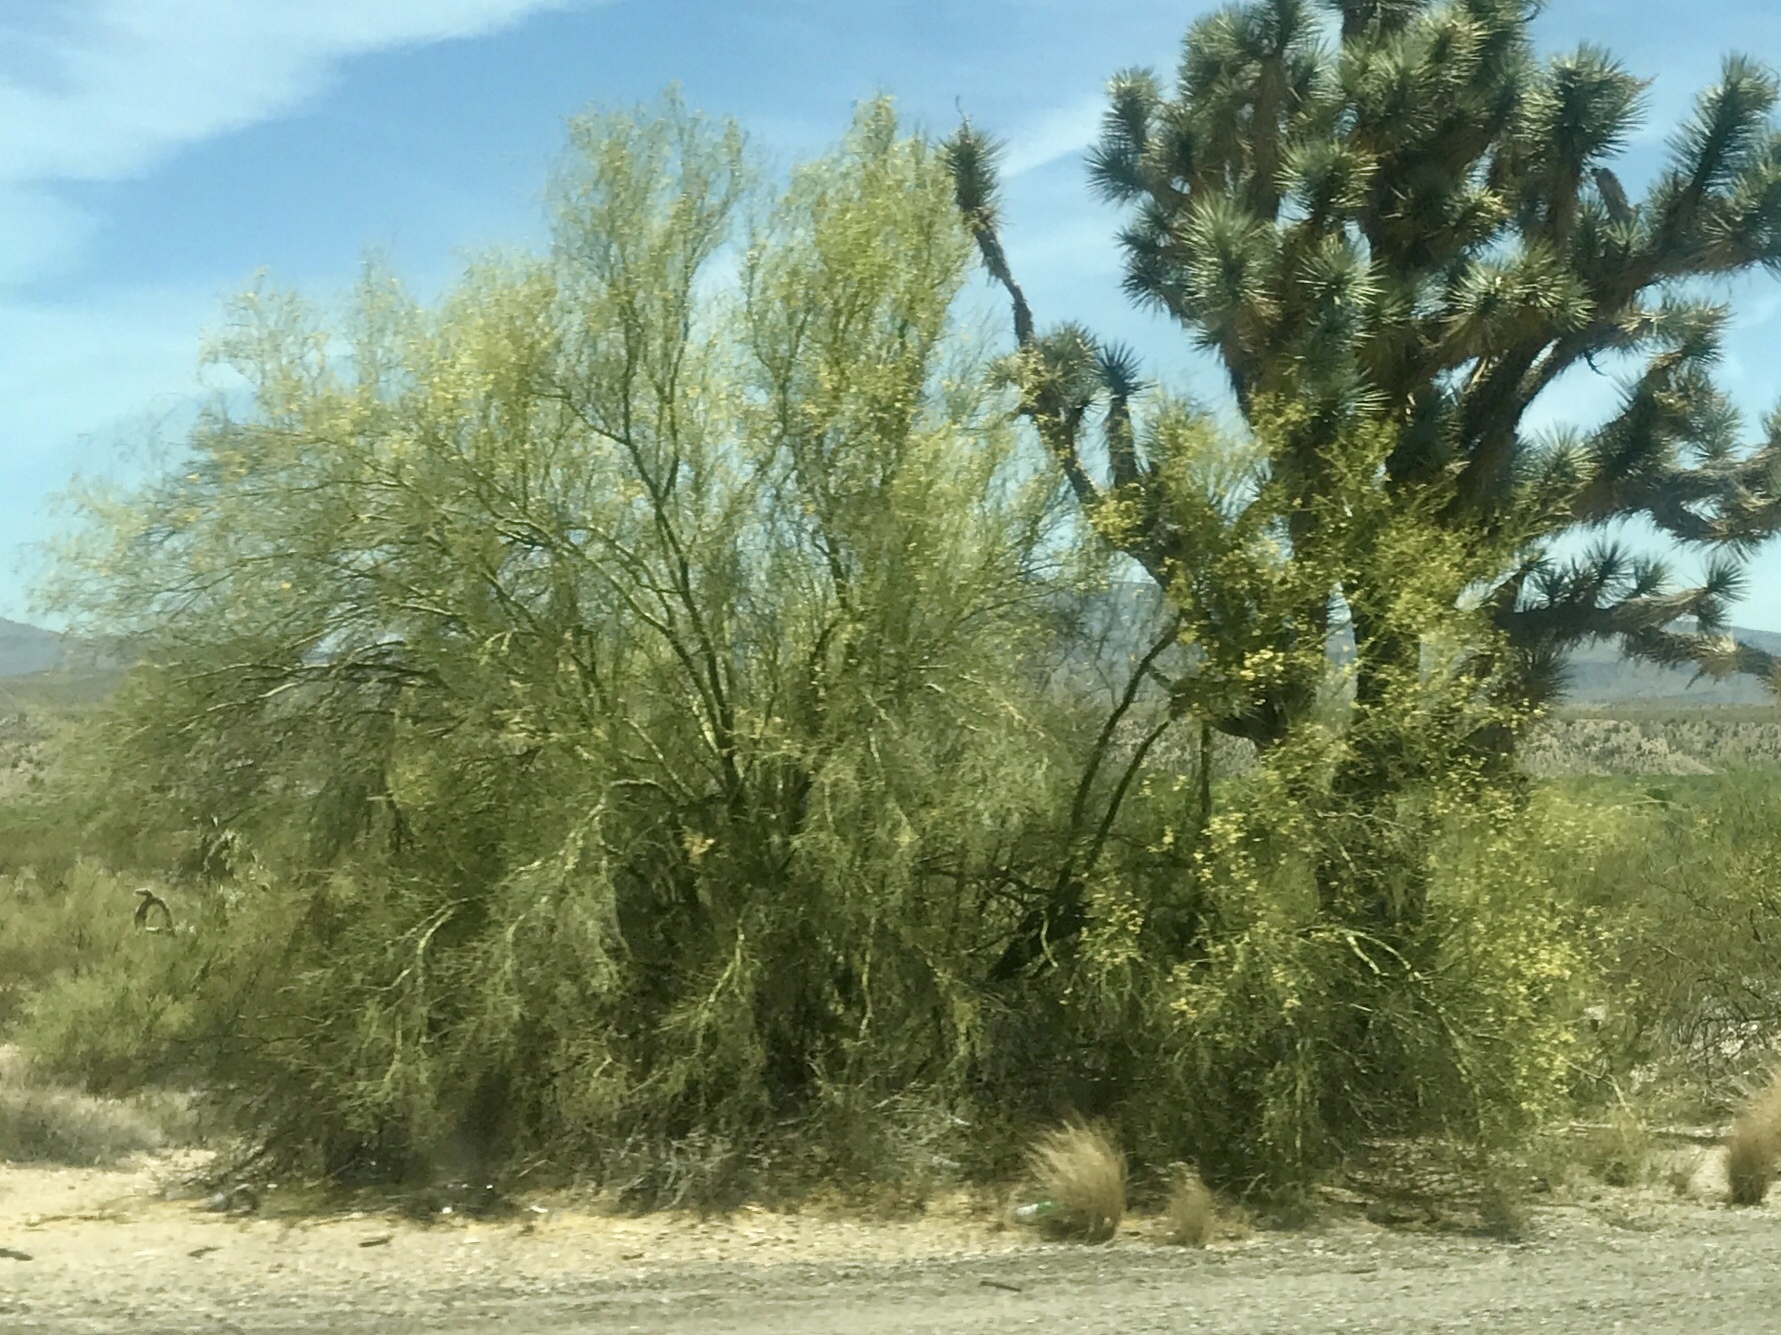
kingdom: Plantae
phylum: Tracheophyta
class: Magnoliopsida
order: Fabales
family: Fabaceae
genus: Parkinsonia
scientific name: Parkinsonia microphylla
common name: Yellow paloverde
